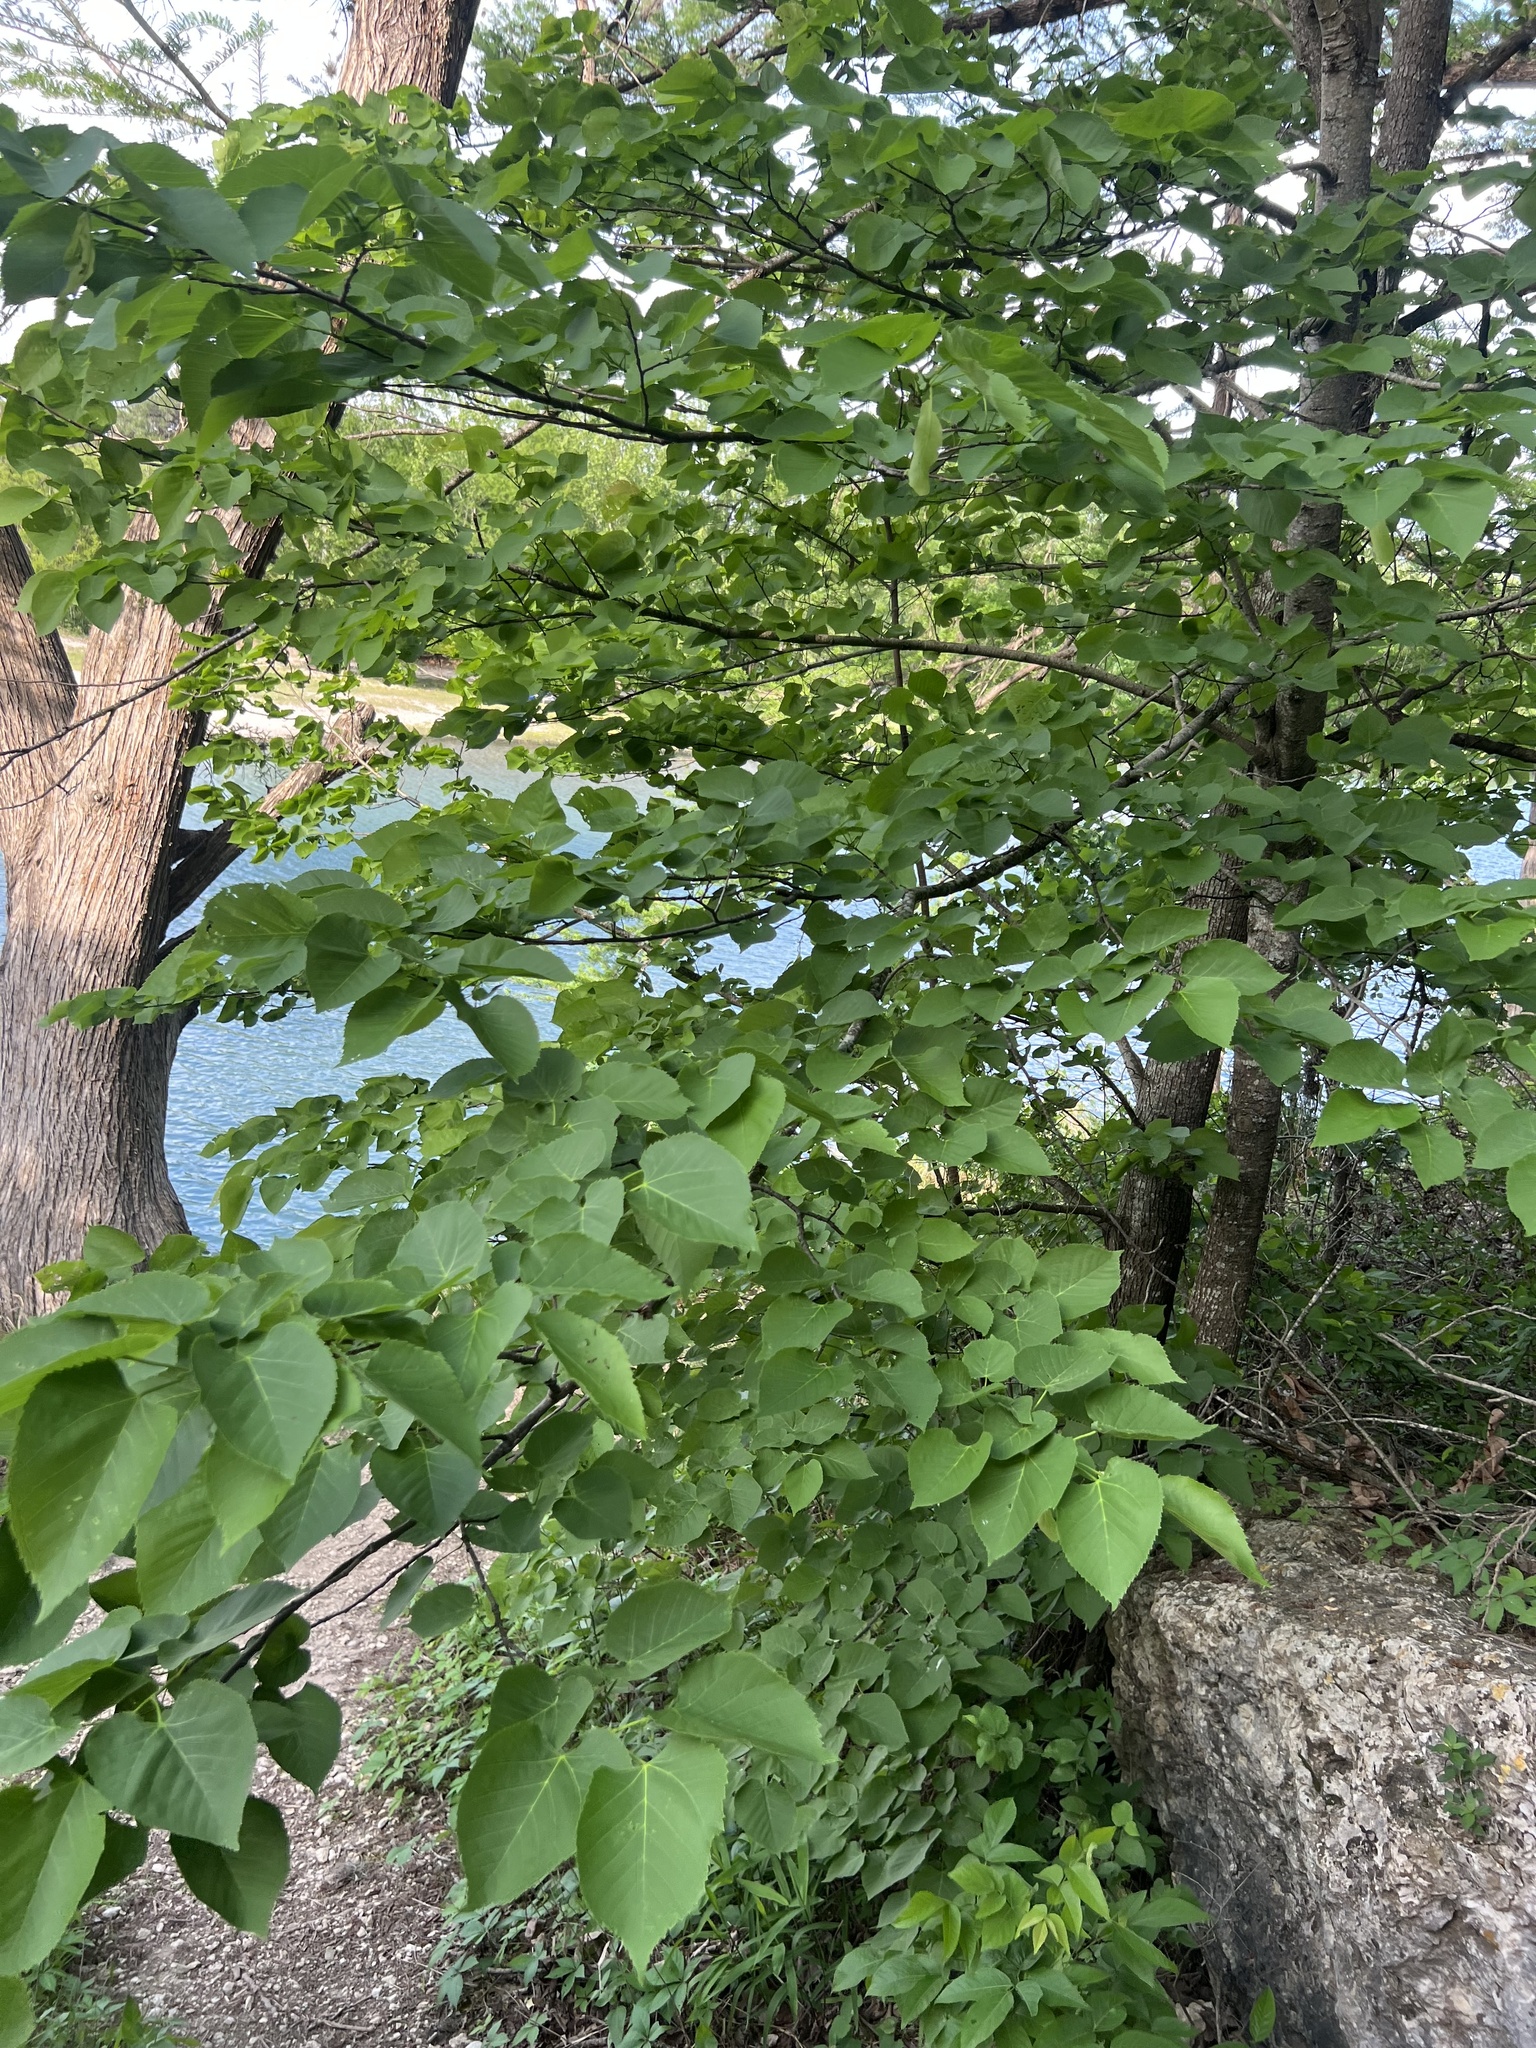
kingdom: Plantae
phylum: Tracheophyta
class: Magnoliopsida
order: Malvales
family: Malvaceae
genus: Tilia
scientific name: Tilia americana
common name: Basswood
